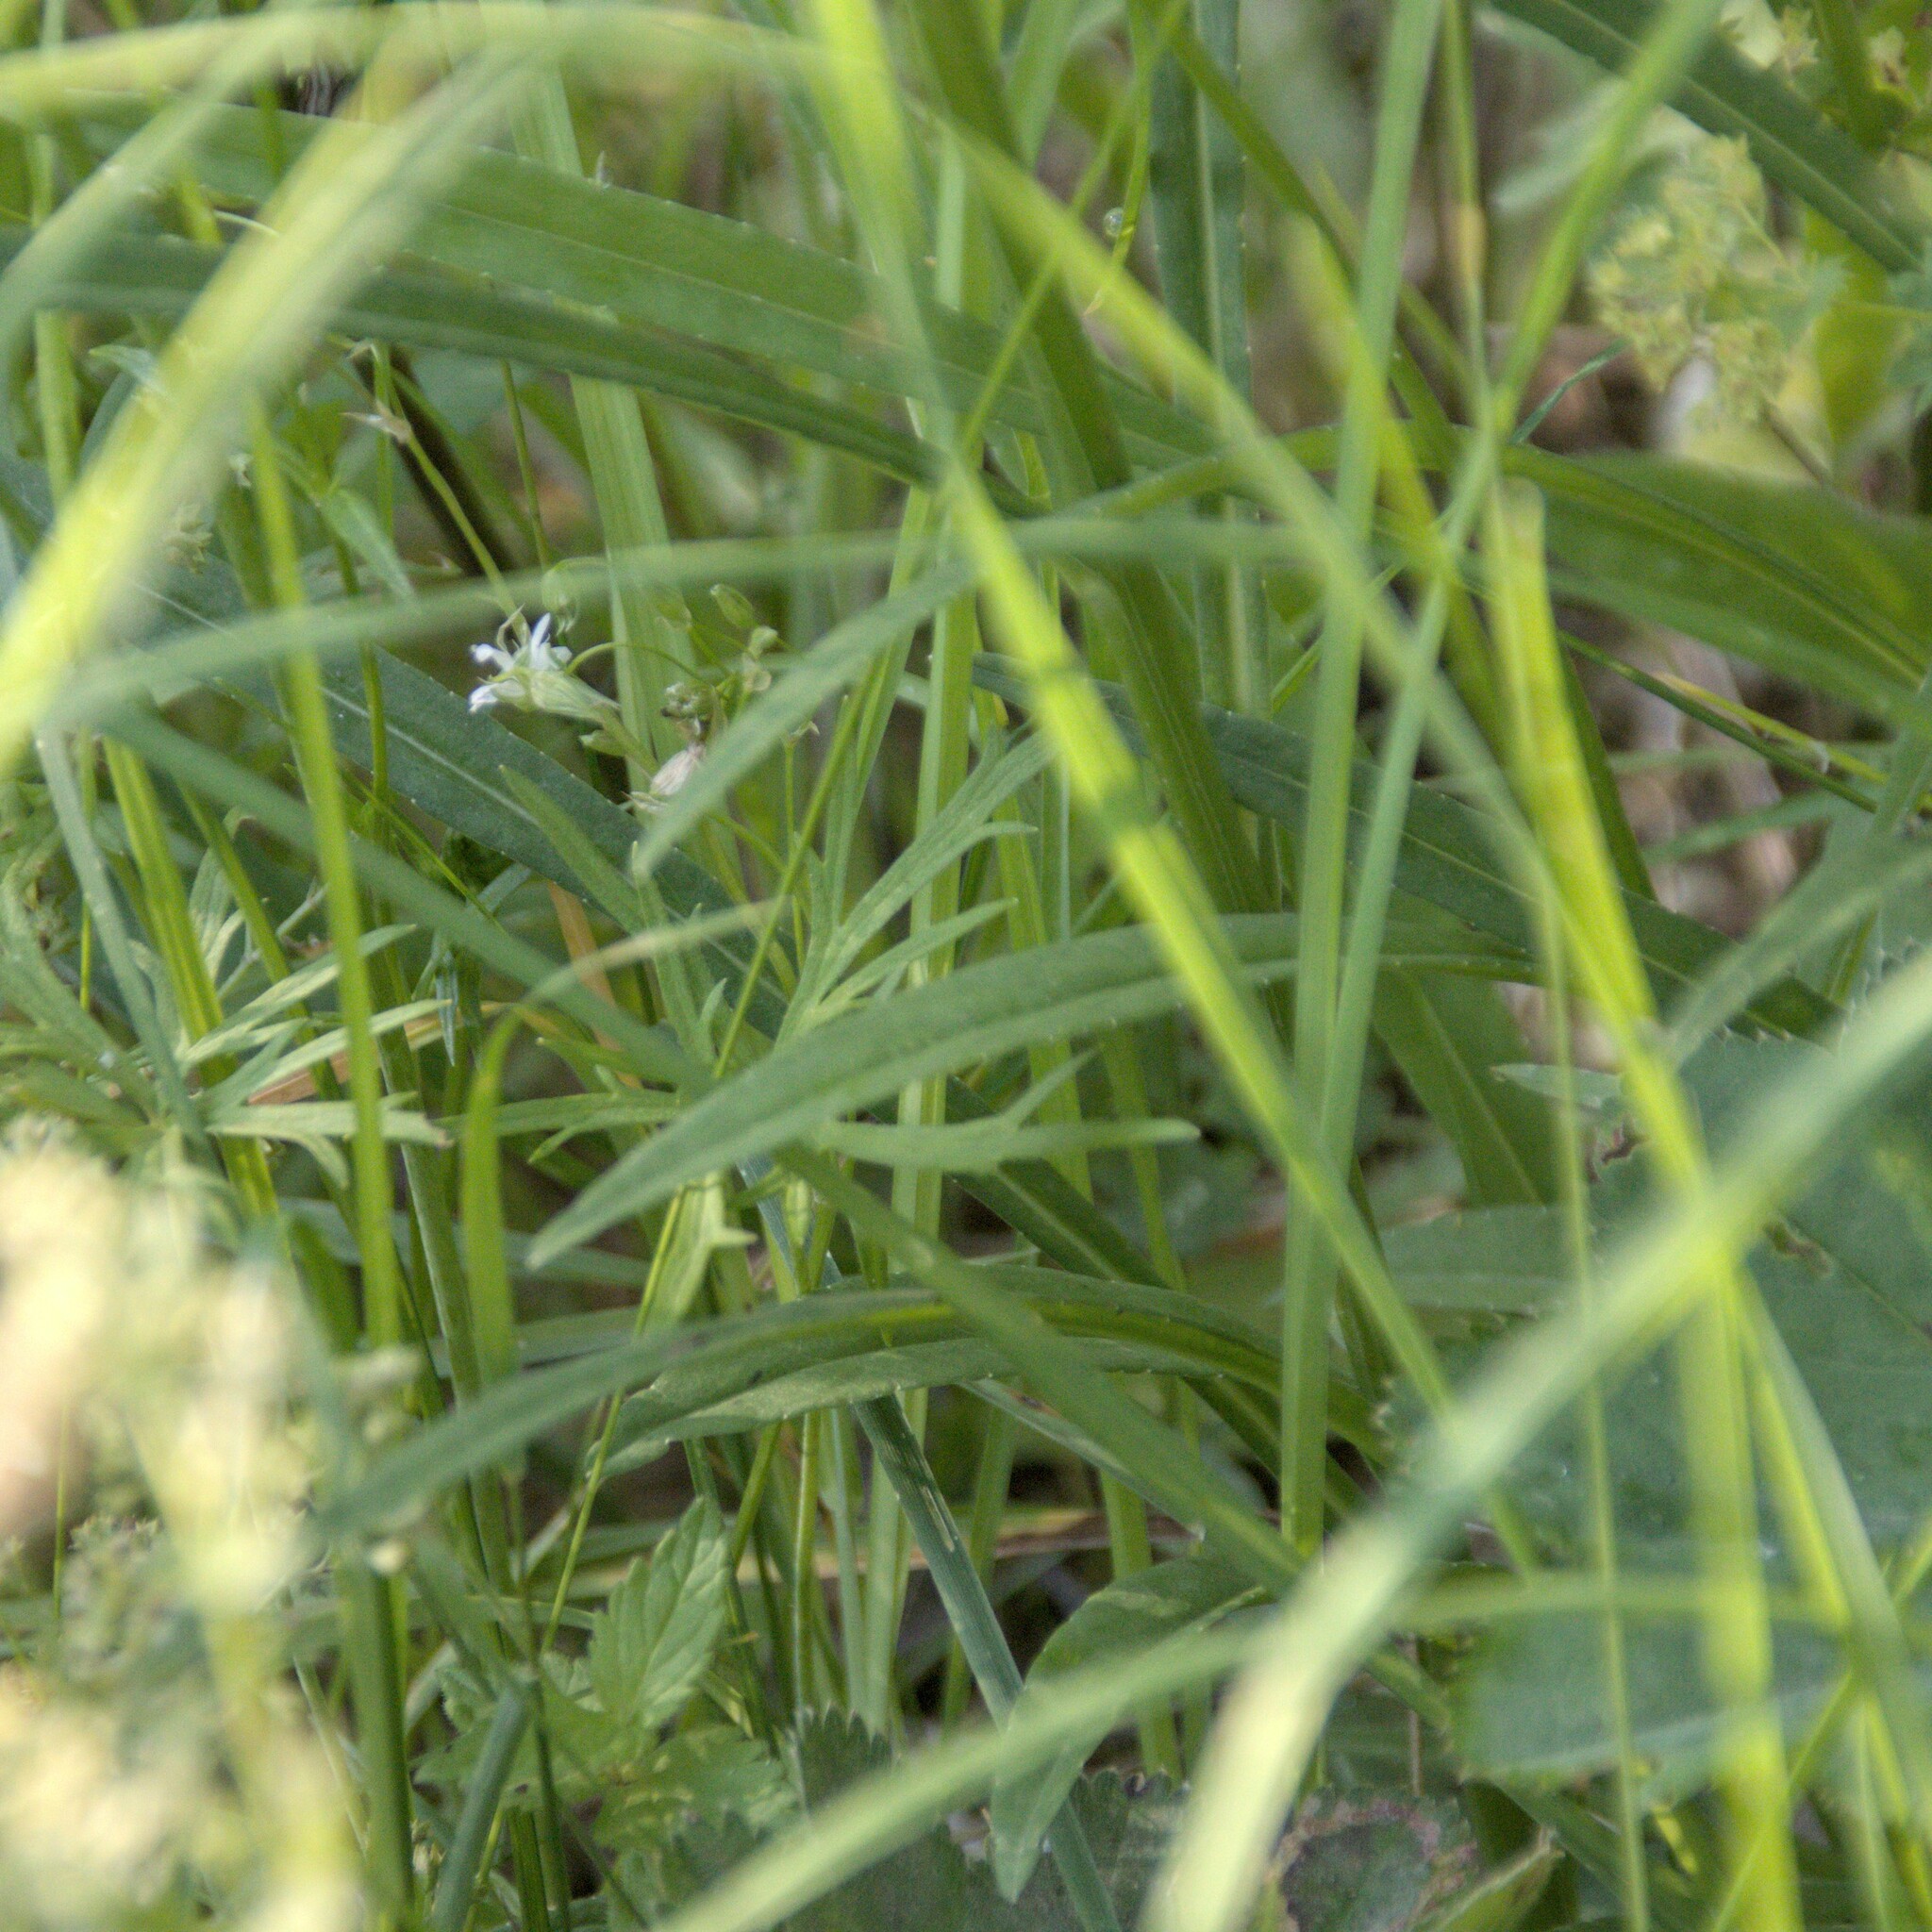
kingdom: Plantae
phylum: Tracheophyta
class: Magnoliopsida
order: Asterales
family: Campanulaceae
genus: Campanula
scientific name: Campanula persicifolia
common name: Peach-leaved bellflower
